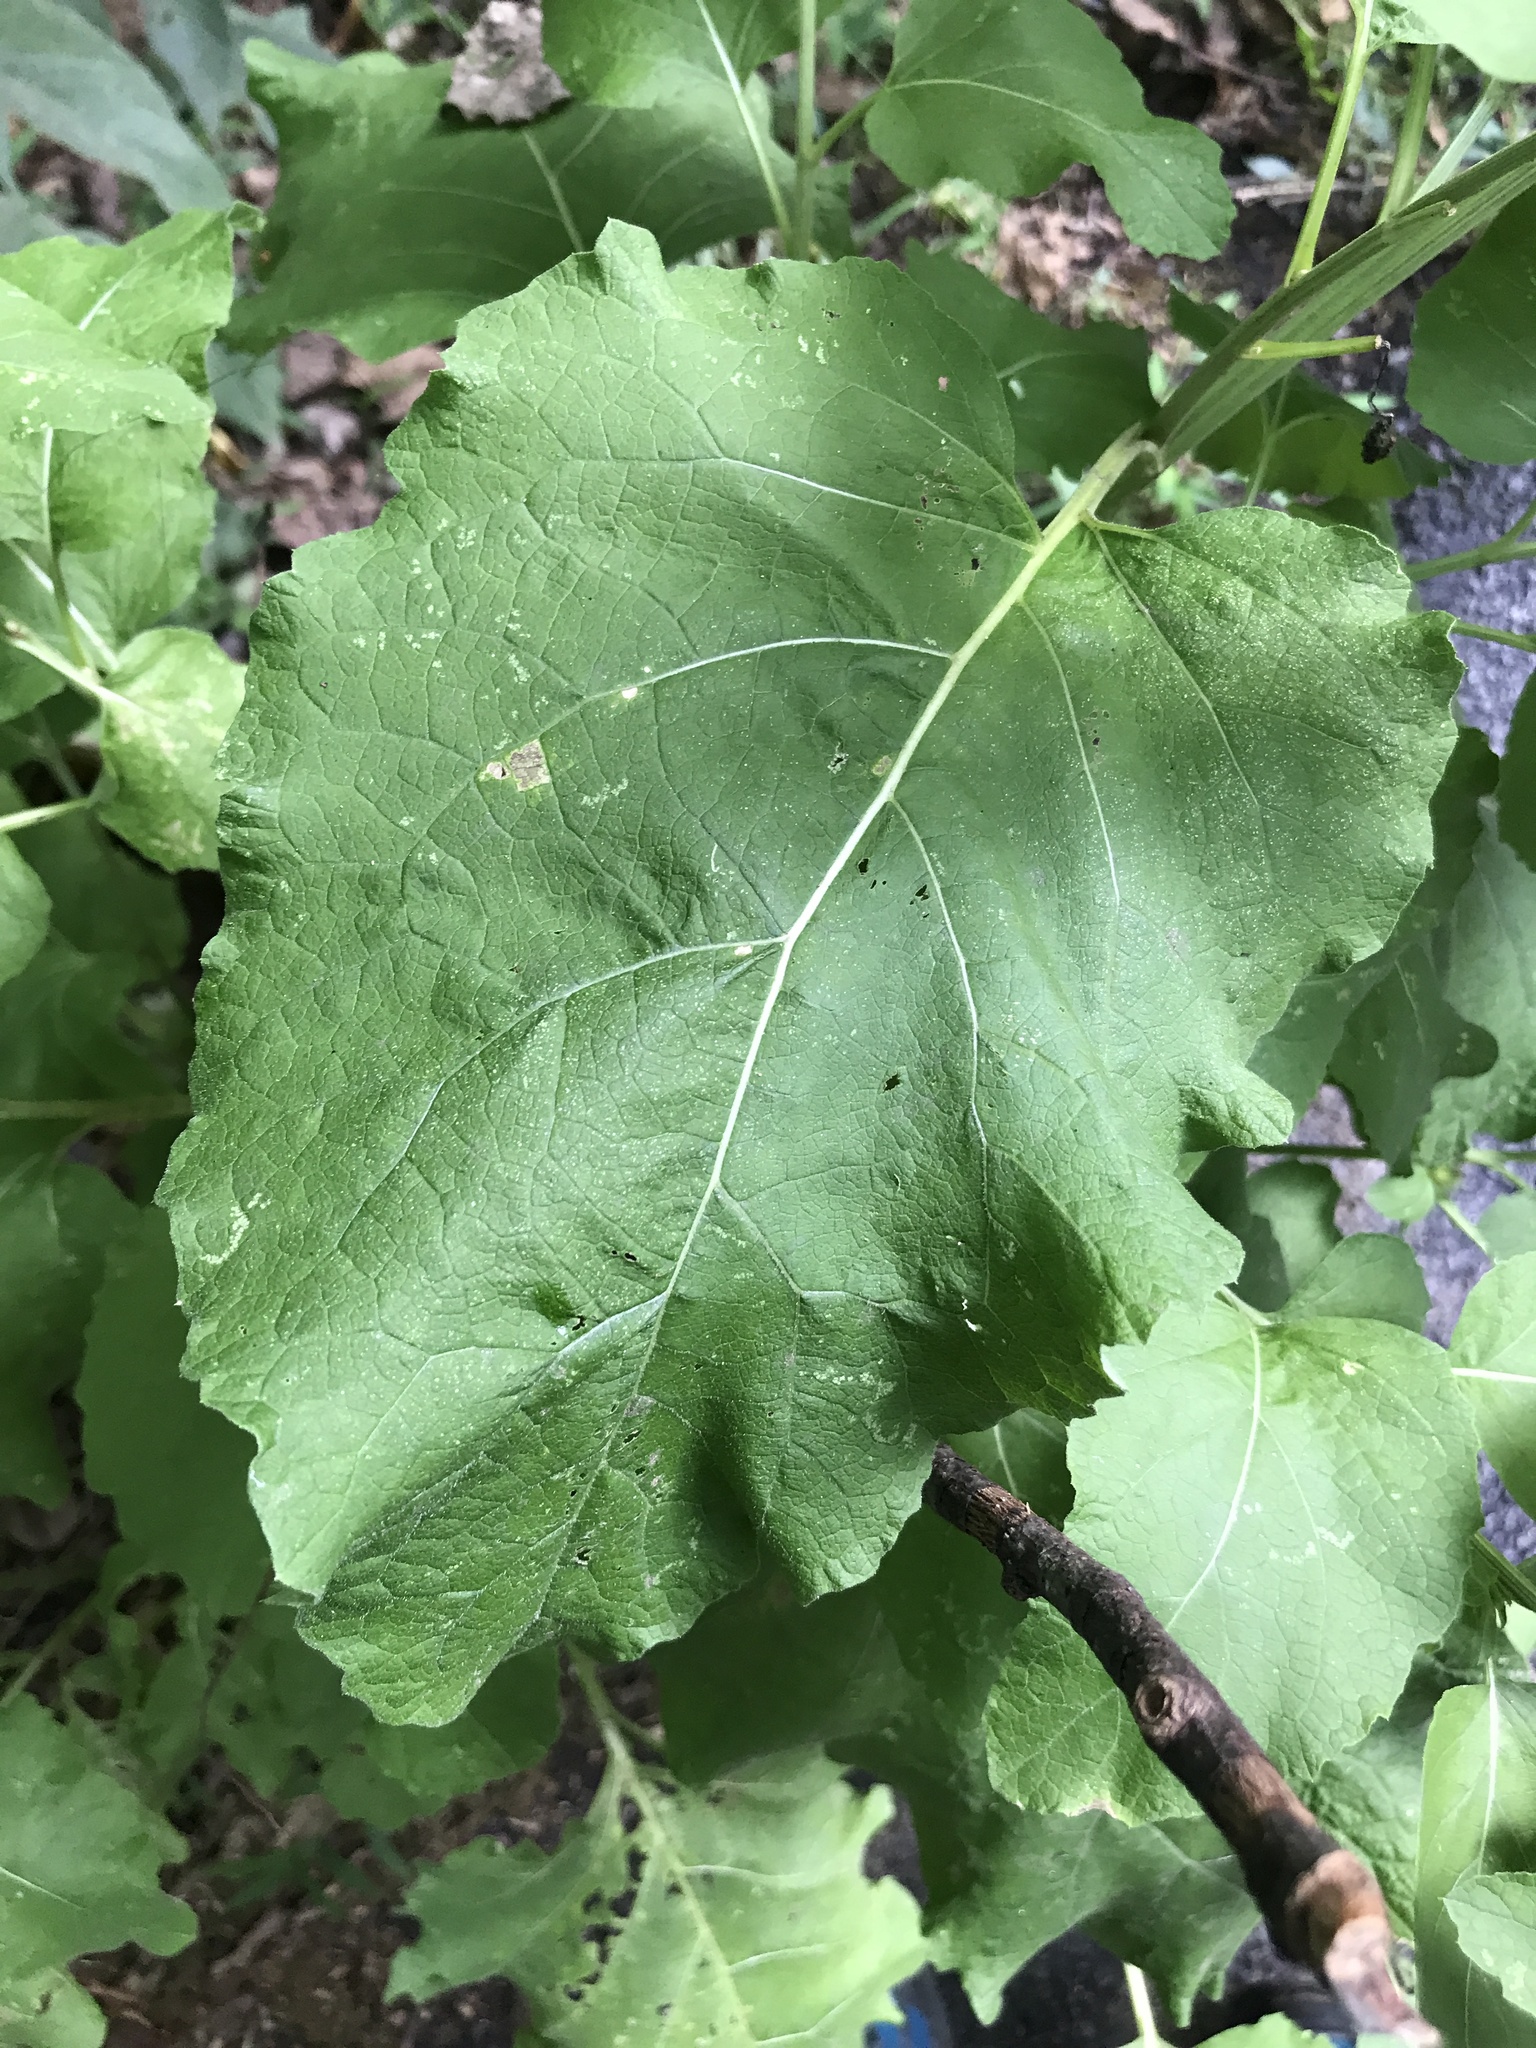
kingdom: Plantae
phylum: Tracheophyta
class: Magnoliopsida
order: Asterales
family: Asteraceae
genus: Arctium
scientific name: Arctium minus
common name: Lesser burdock
